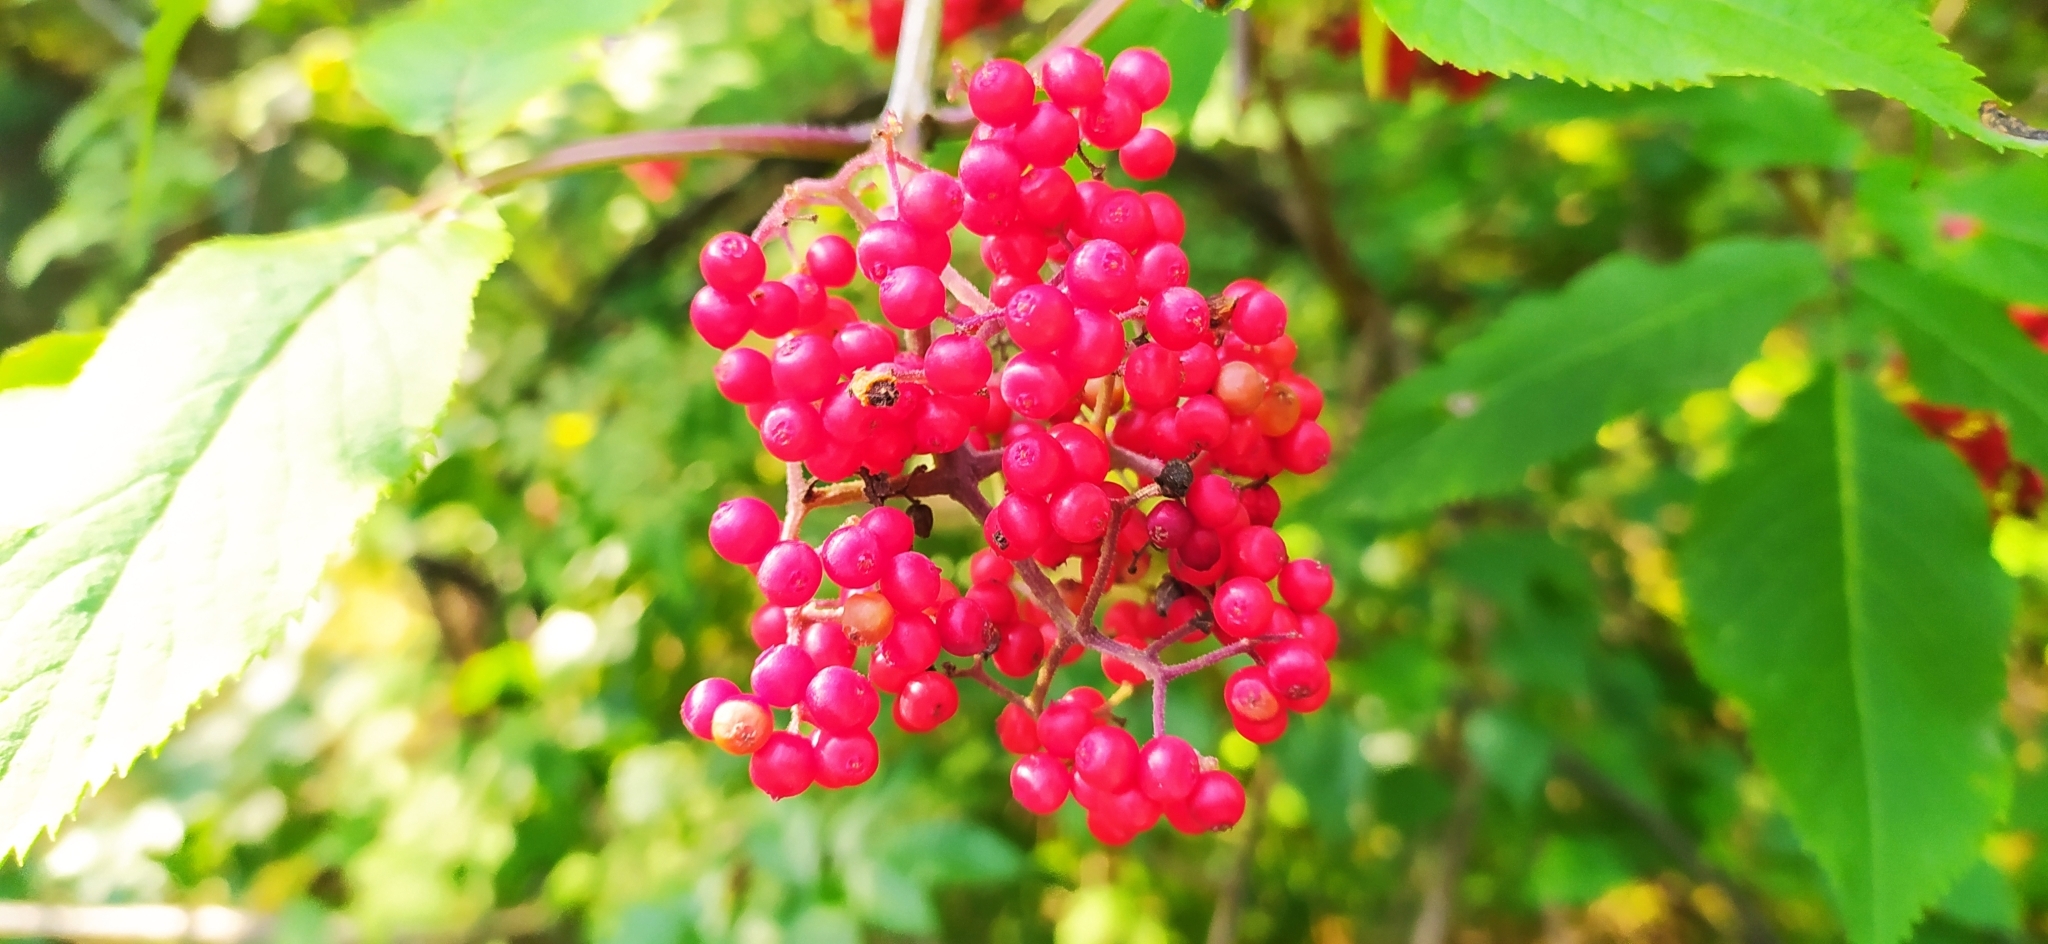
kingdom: Plantae
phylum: Tracheophyta
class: Magnoliopsida
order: Dipsacales
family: Viburnaceae
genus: Sambucus
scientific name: Sambucus sibirica
